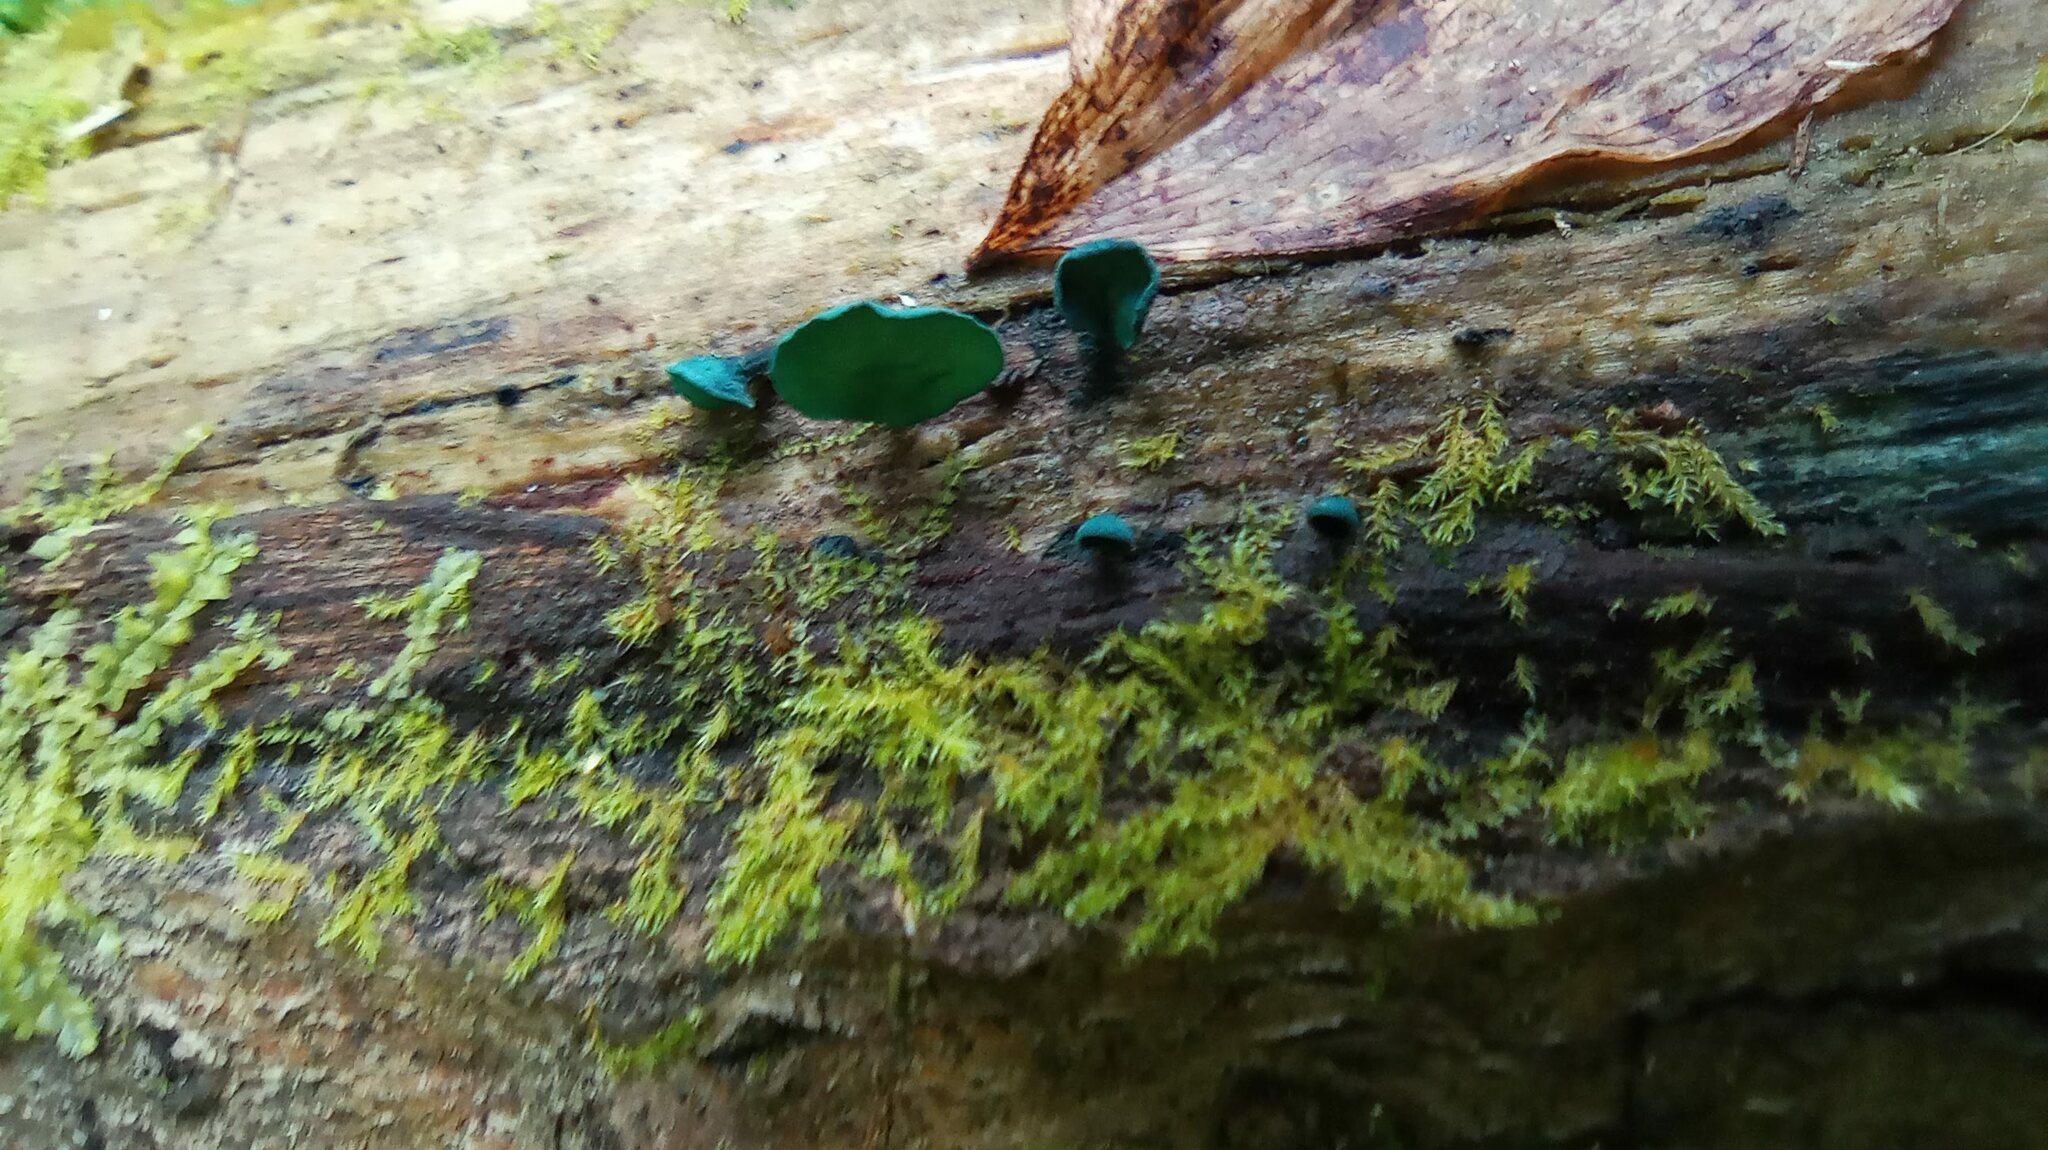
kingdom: Fungi
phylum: Ascomycota
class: Leotiomycetes
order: Helotiales
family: Chlorociboriaceae
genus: Chlorociboria
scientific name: Chlorociboria aeruginascens
